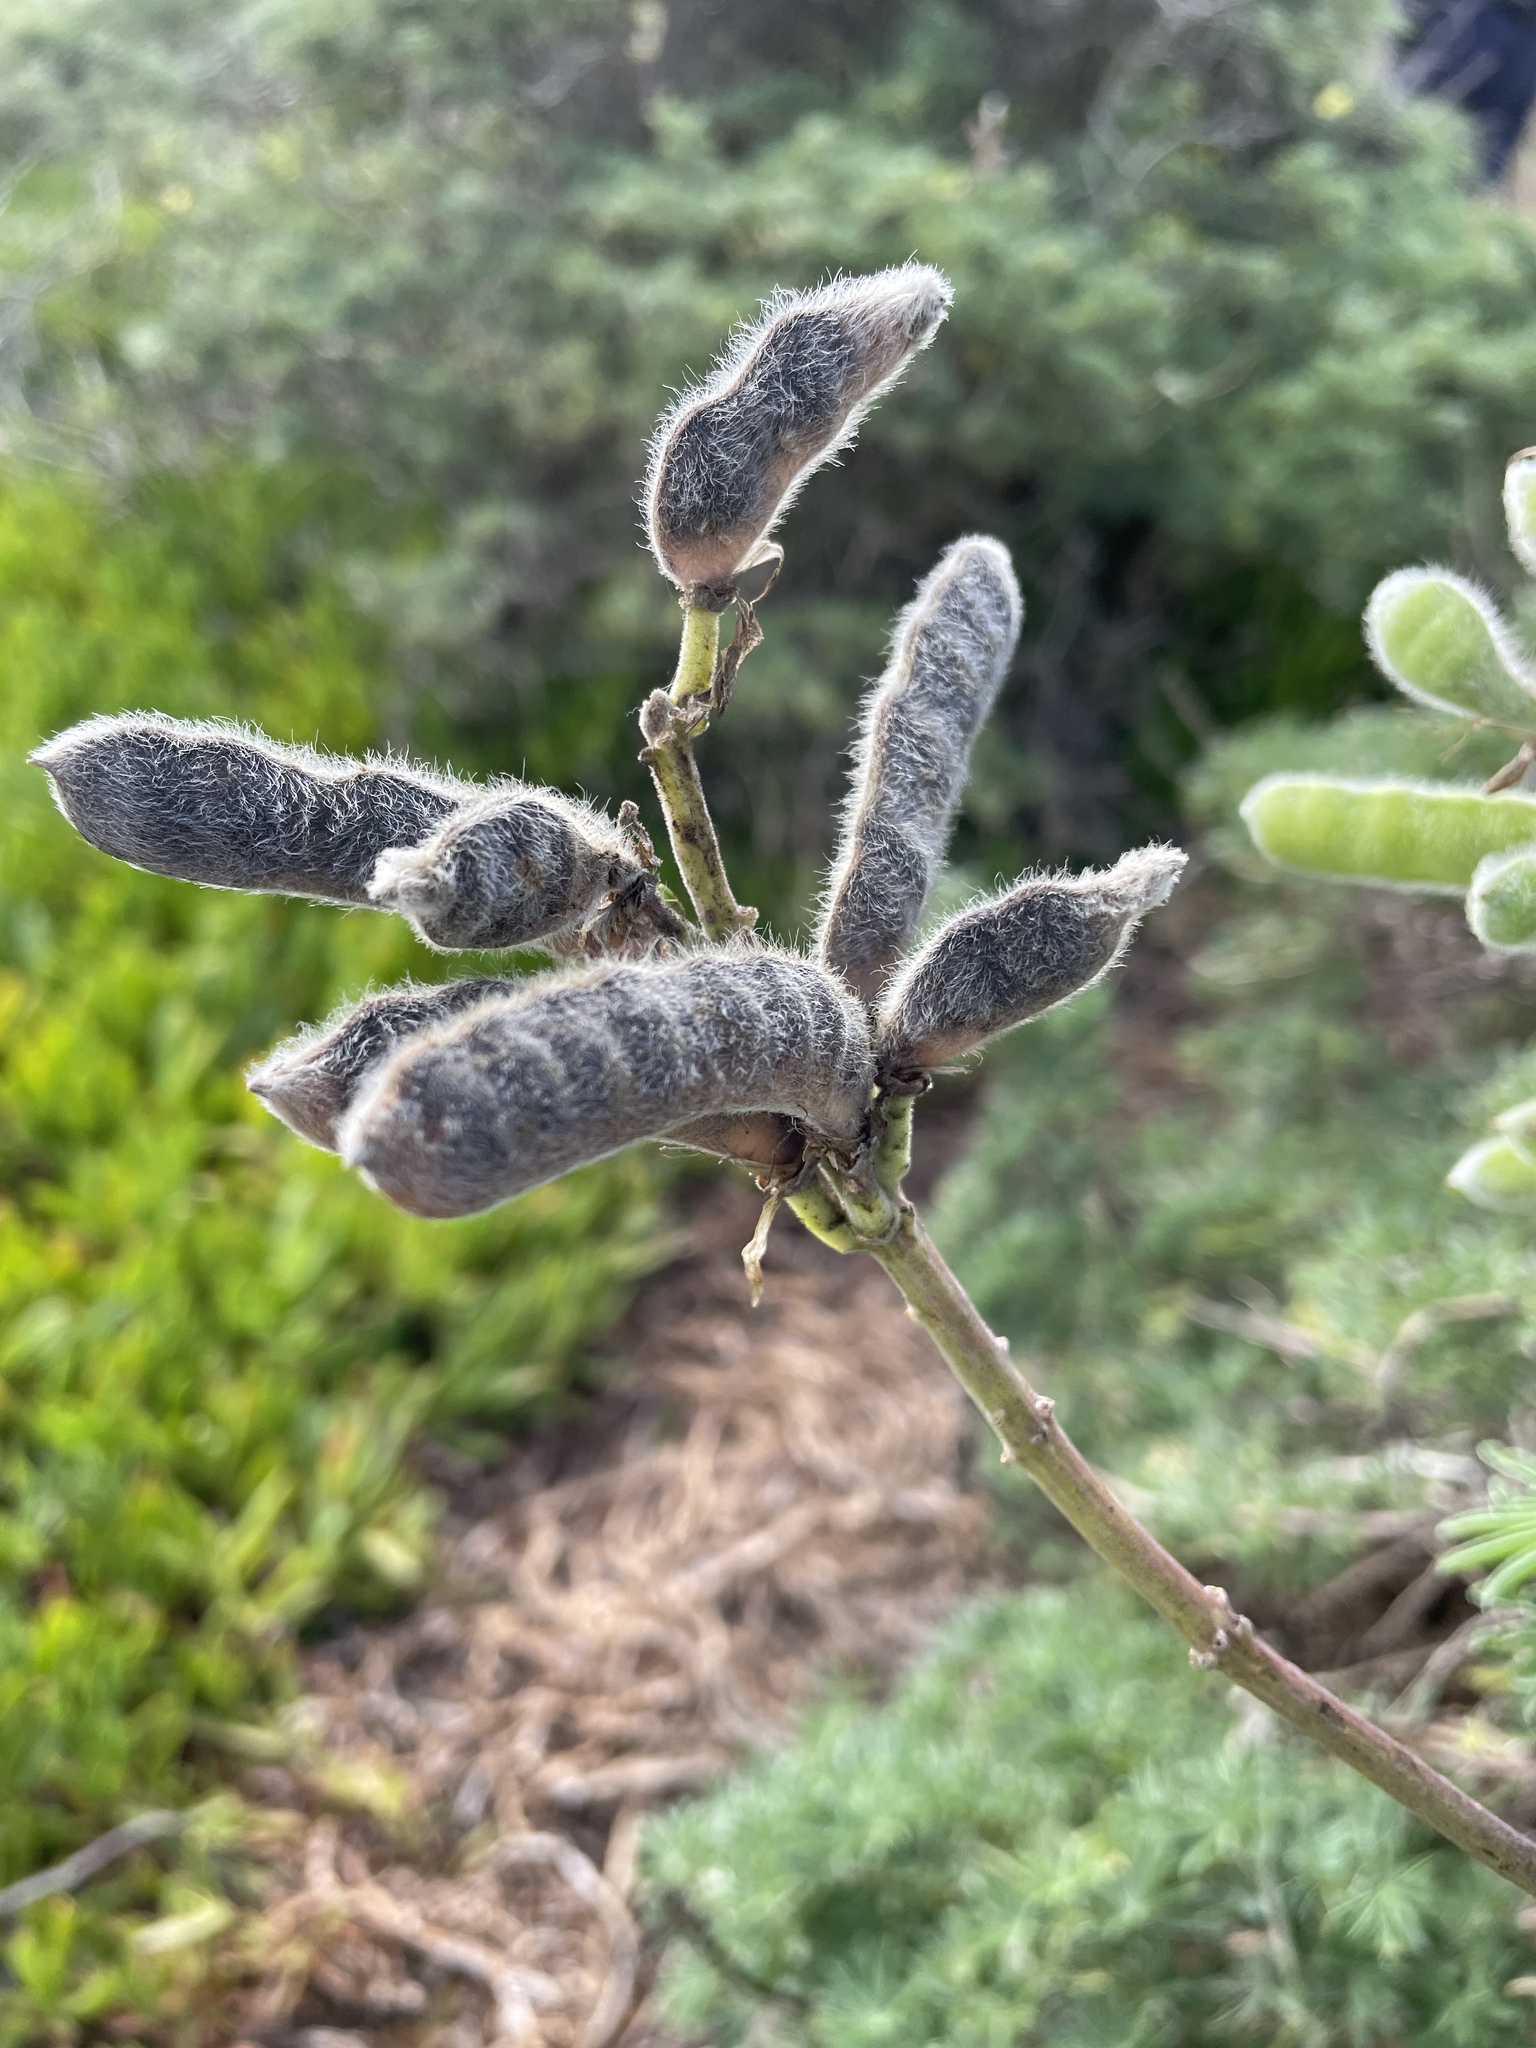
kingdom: Plantae
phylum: Tracheophyta
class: Magnoliopsida
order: Fabales
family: Fabaceae
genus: Lupinus
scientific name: Lupinus arboreus
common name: Yellow bush lupine
